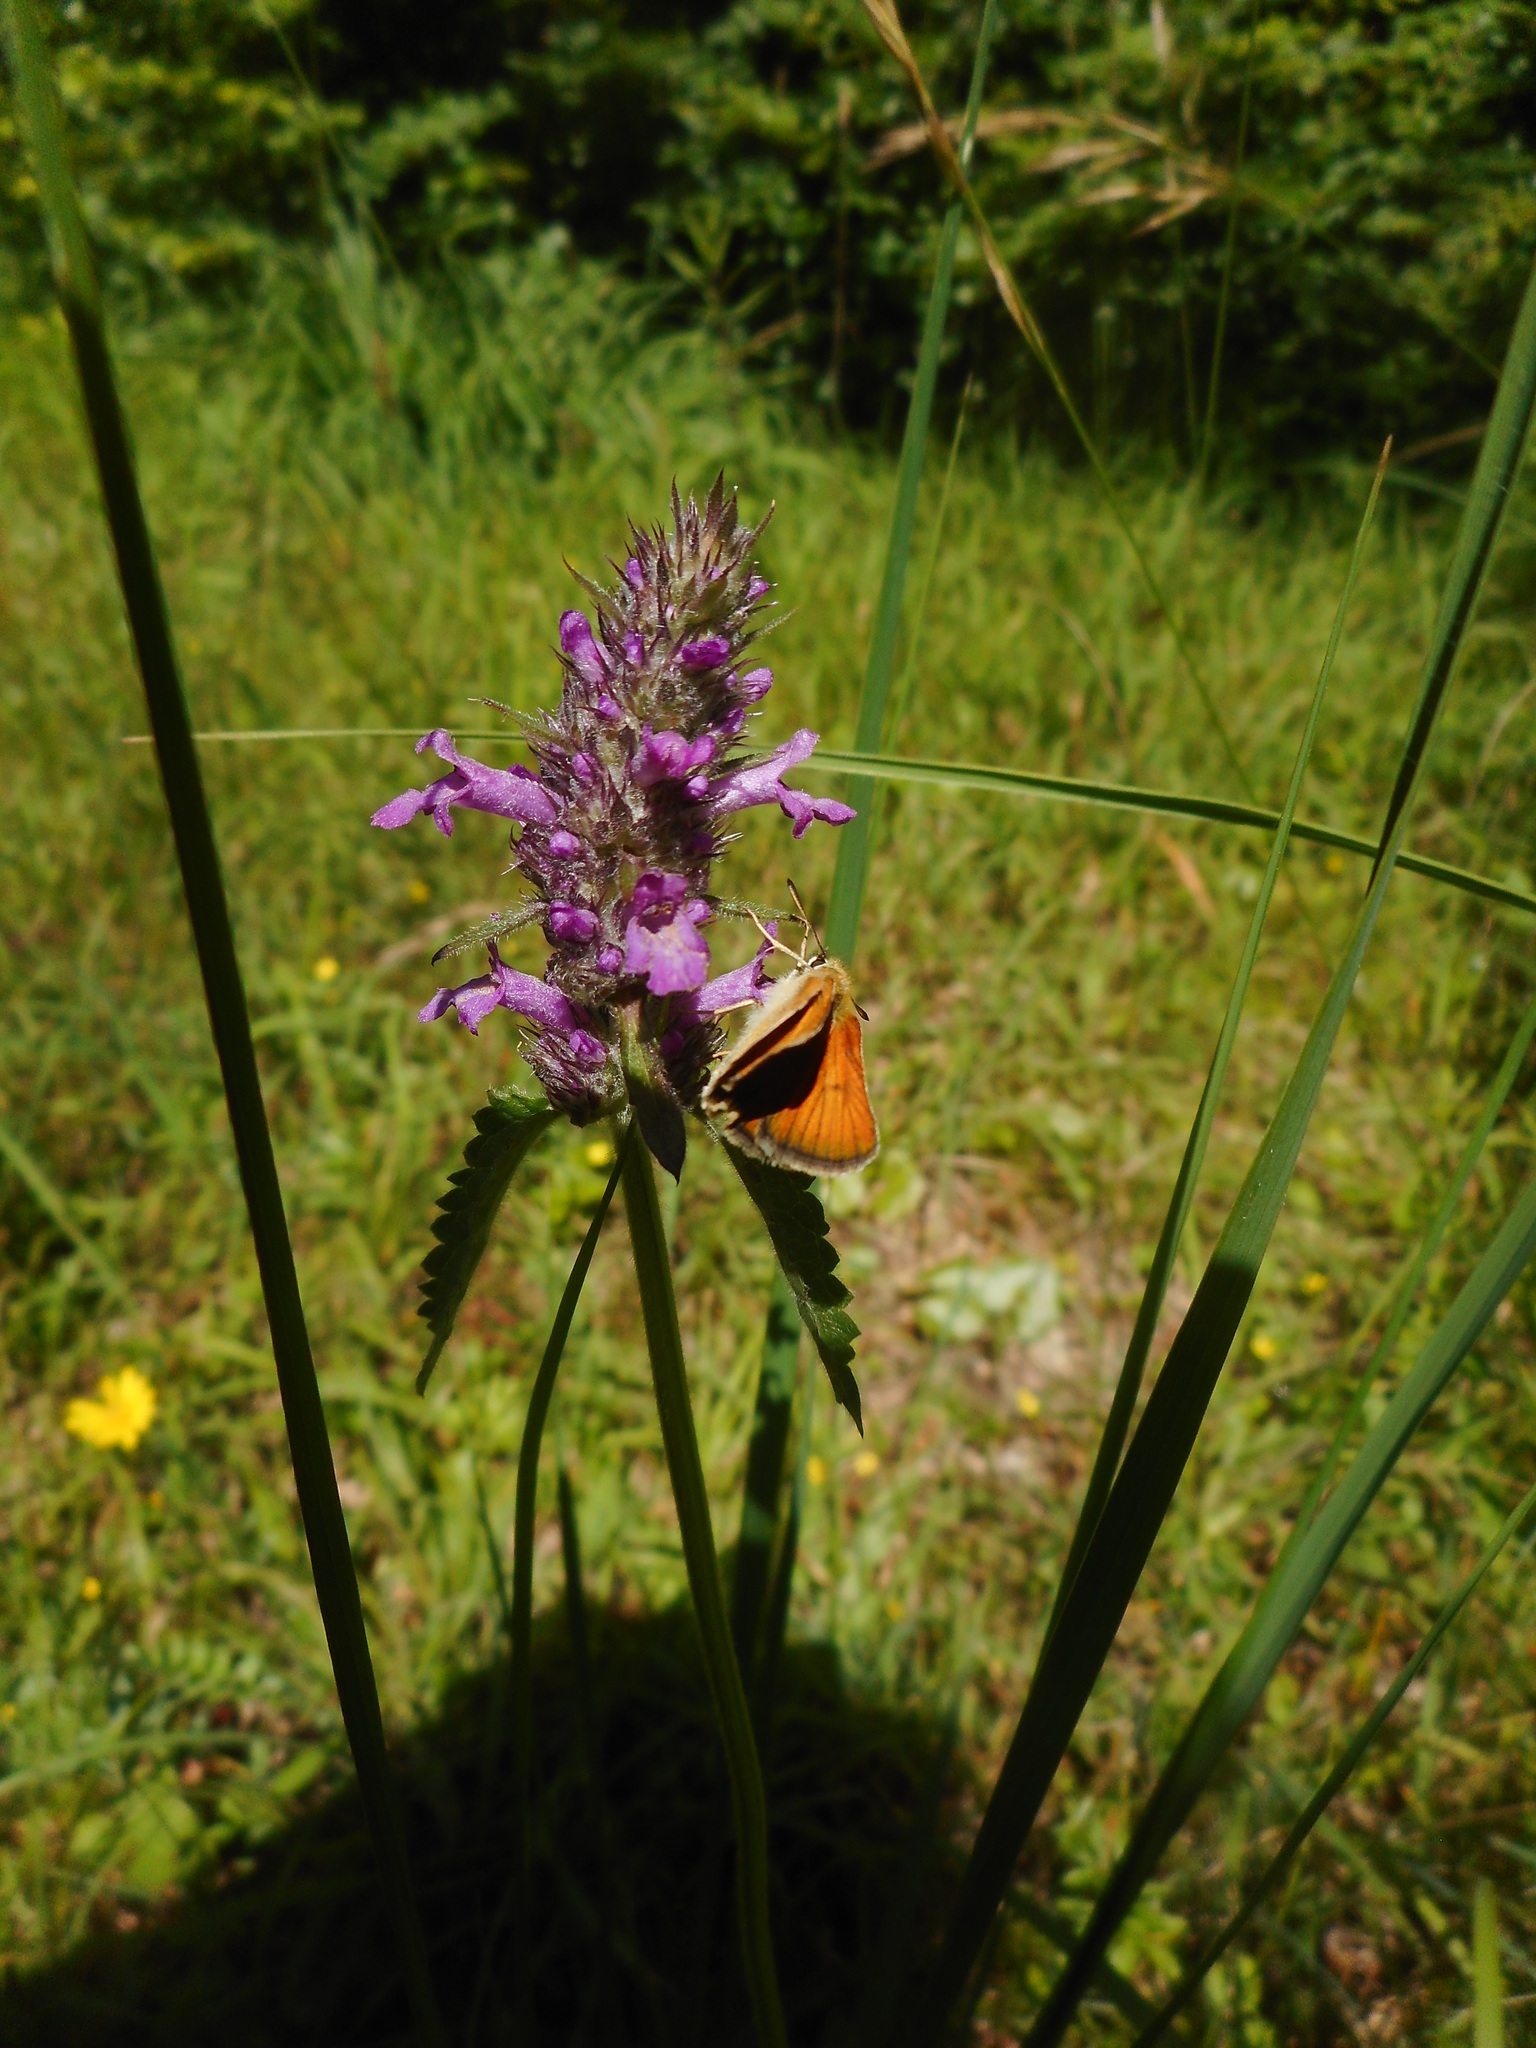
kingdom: Plantae
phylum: Tracheophyta
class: Magnoliopsida
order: Lamiales
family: Lamiaceae
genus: Betonica
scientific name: Betonica officinalis
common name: Bishop's-wort
